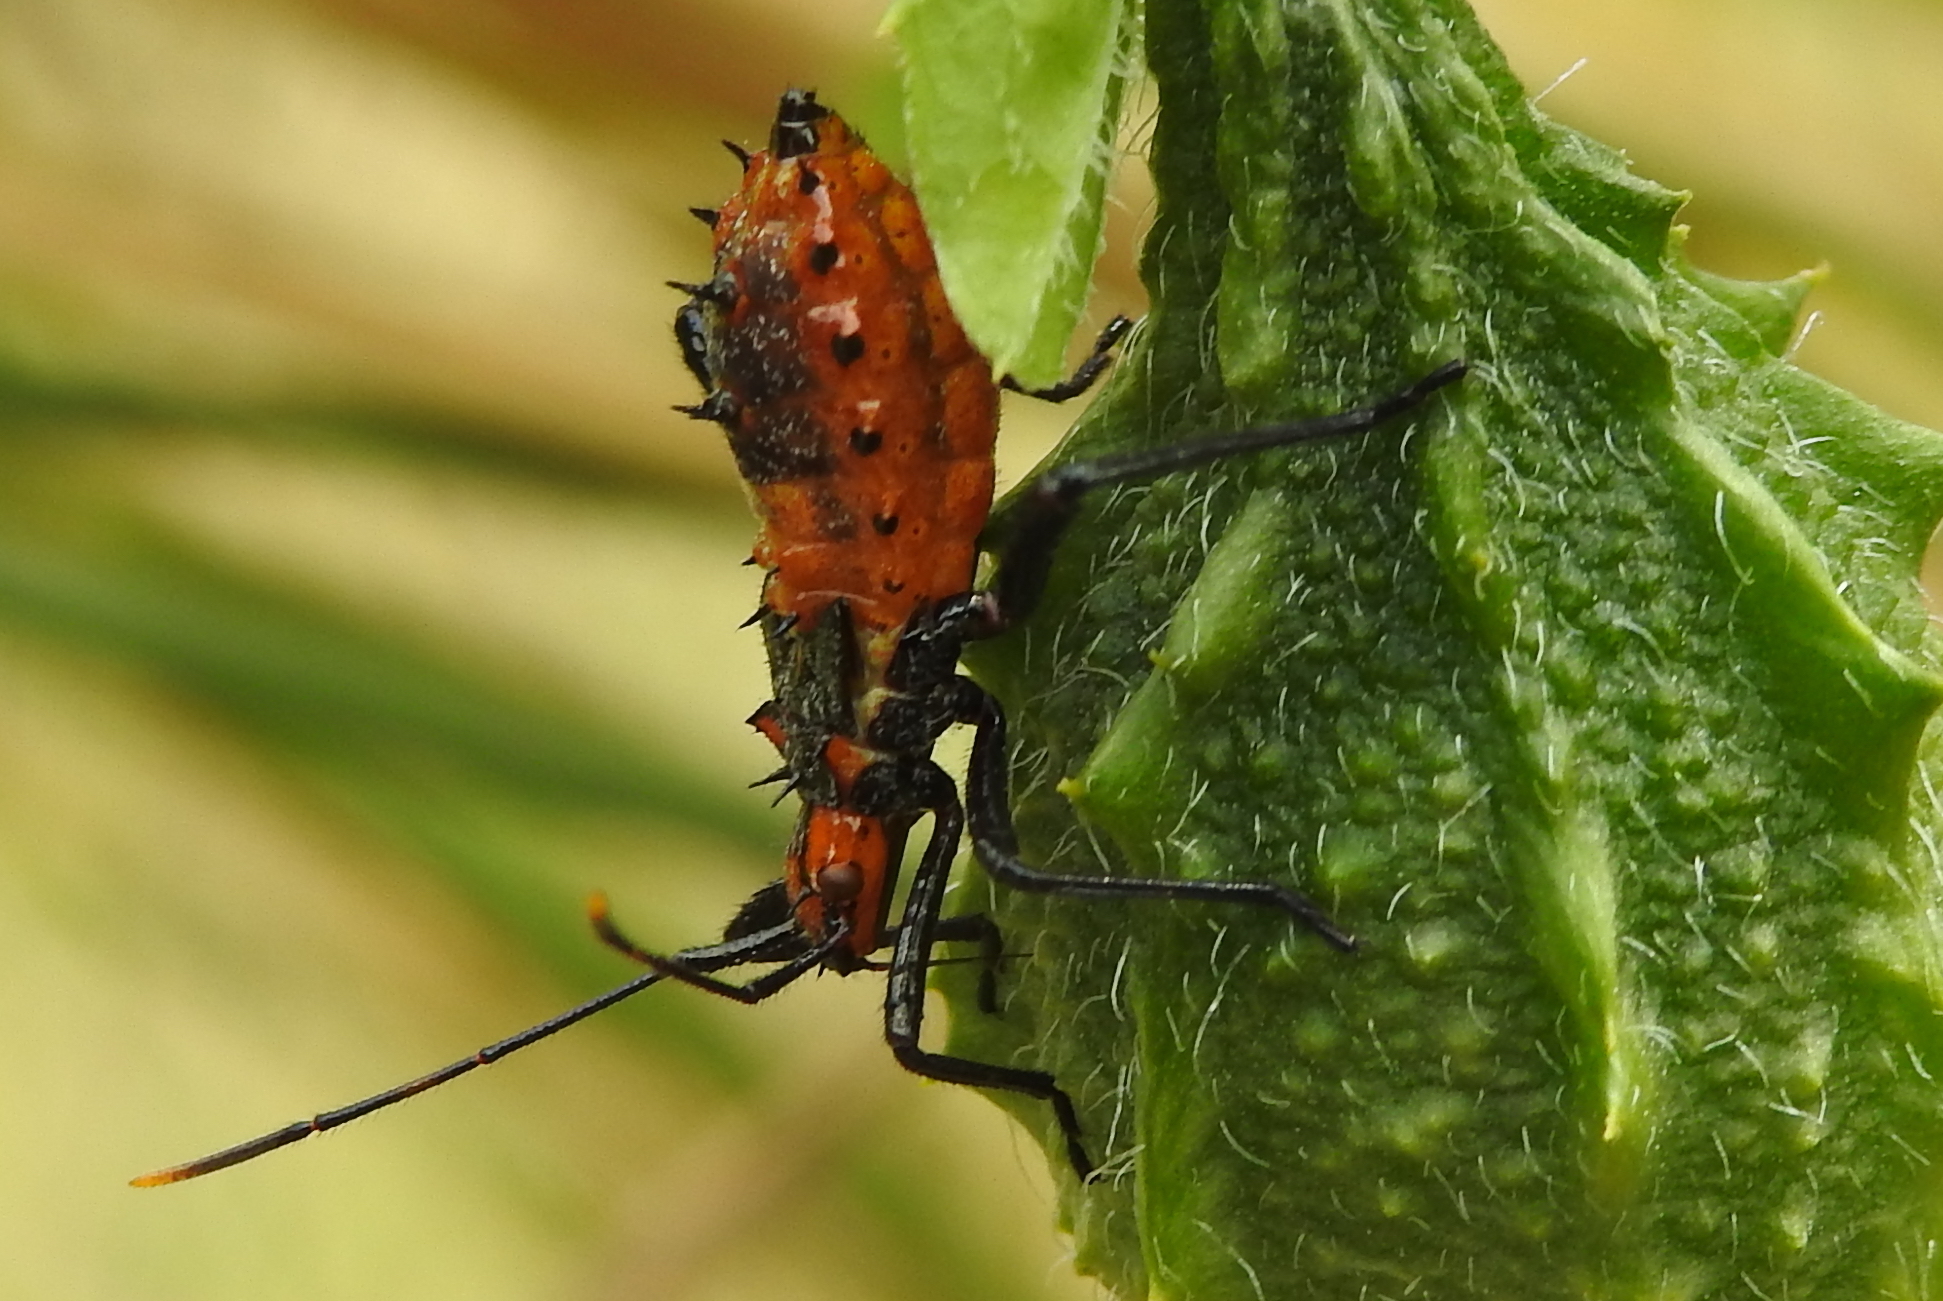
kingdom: Animalia
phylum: Arthropoda
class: Insecta
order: Hemiptera
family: Coreidae
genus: Leptoglossus
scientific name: Leptoglossus gonagra
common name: Citron bug
